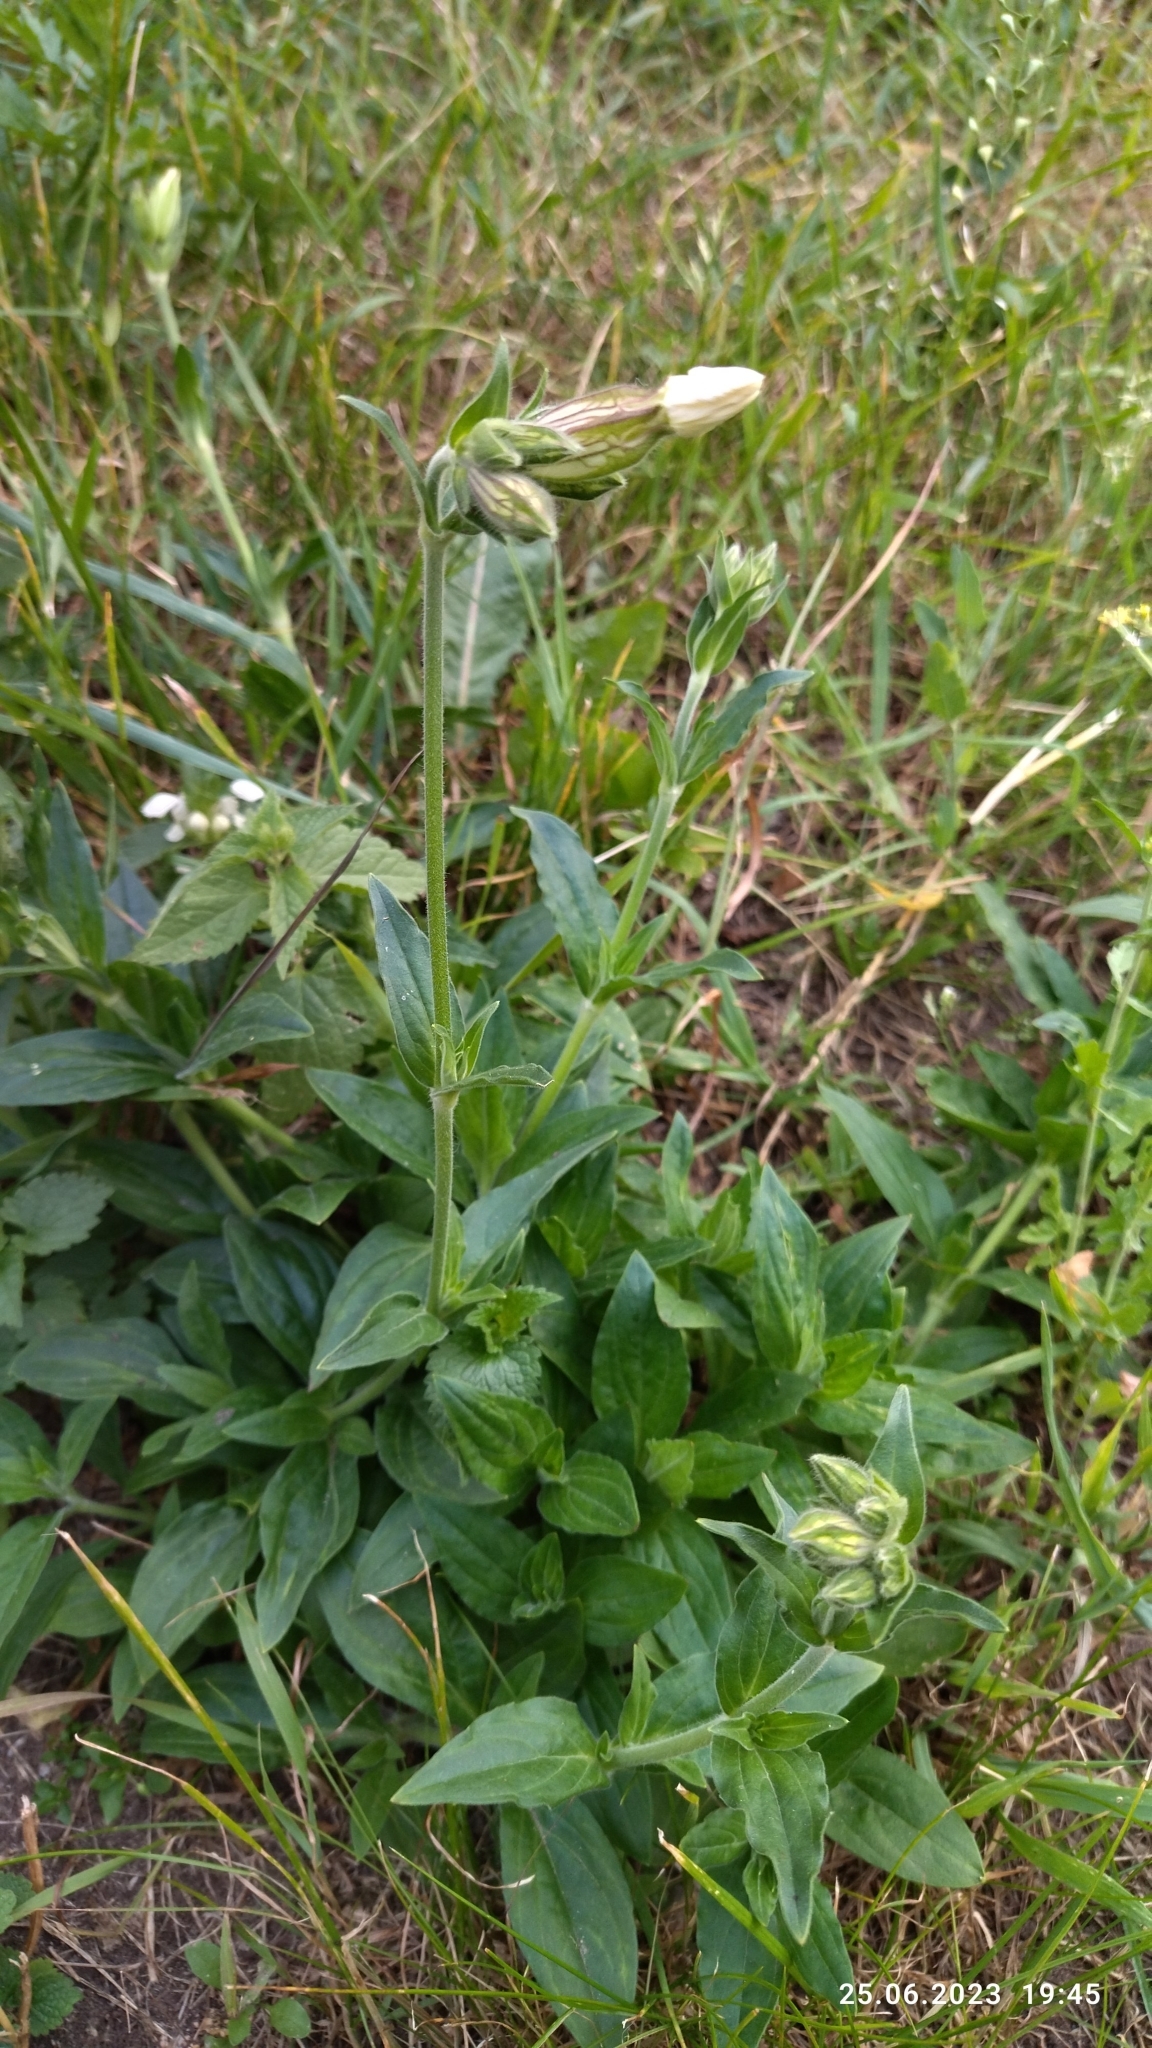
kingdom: Plantae
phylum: Tracheophyta
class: Magnoliopsida
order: Caryophyllales
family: Caryophyllaceae
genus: Silene
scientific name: Silene latifolia
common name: White campion
